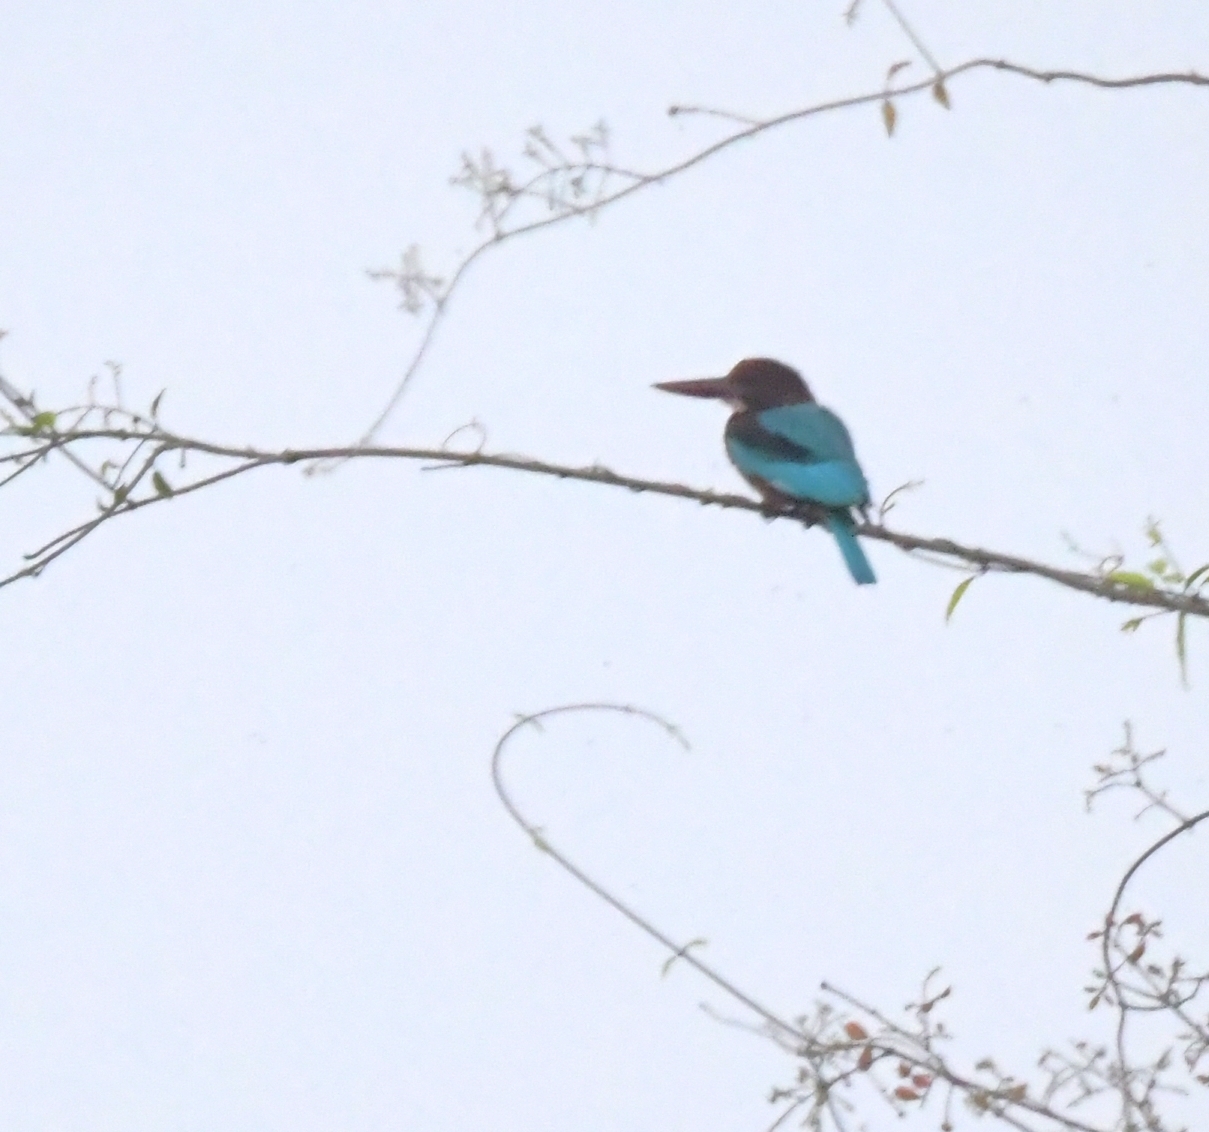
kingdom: Animalia
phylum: Chordata
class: Aves
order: Coraciiformes
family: Alcedinidae
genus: Halcyon
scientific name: Halcyon smyrnensis
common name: White-throated kingfisher
